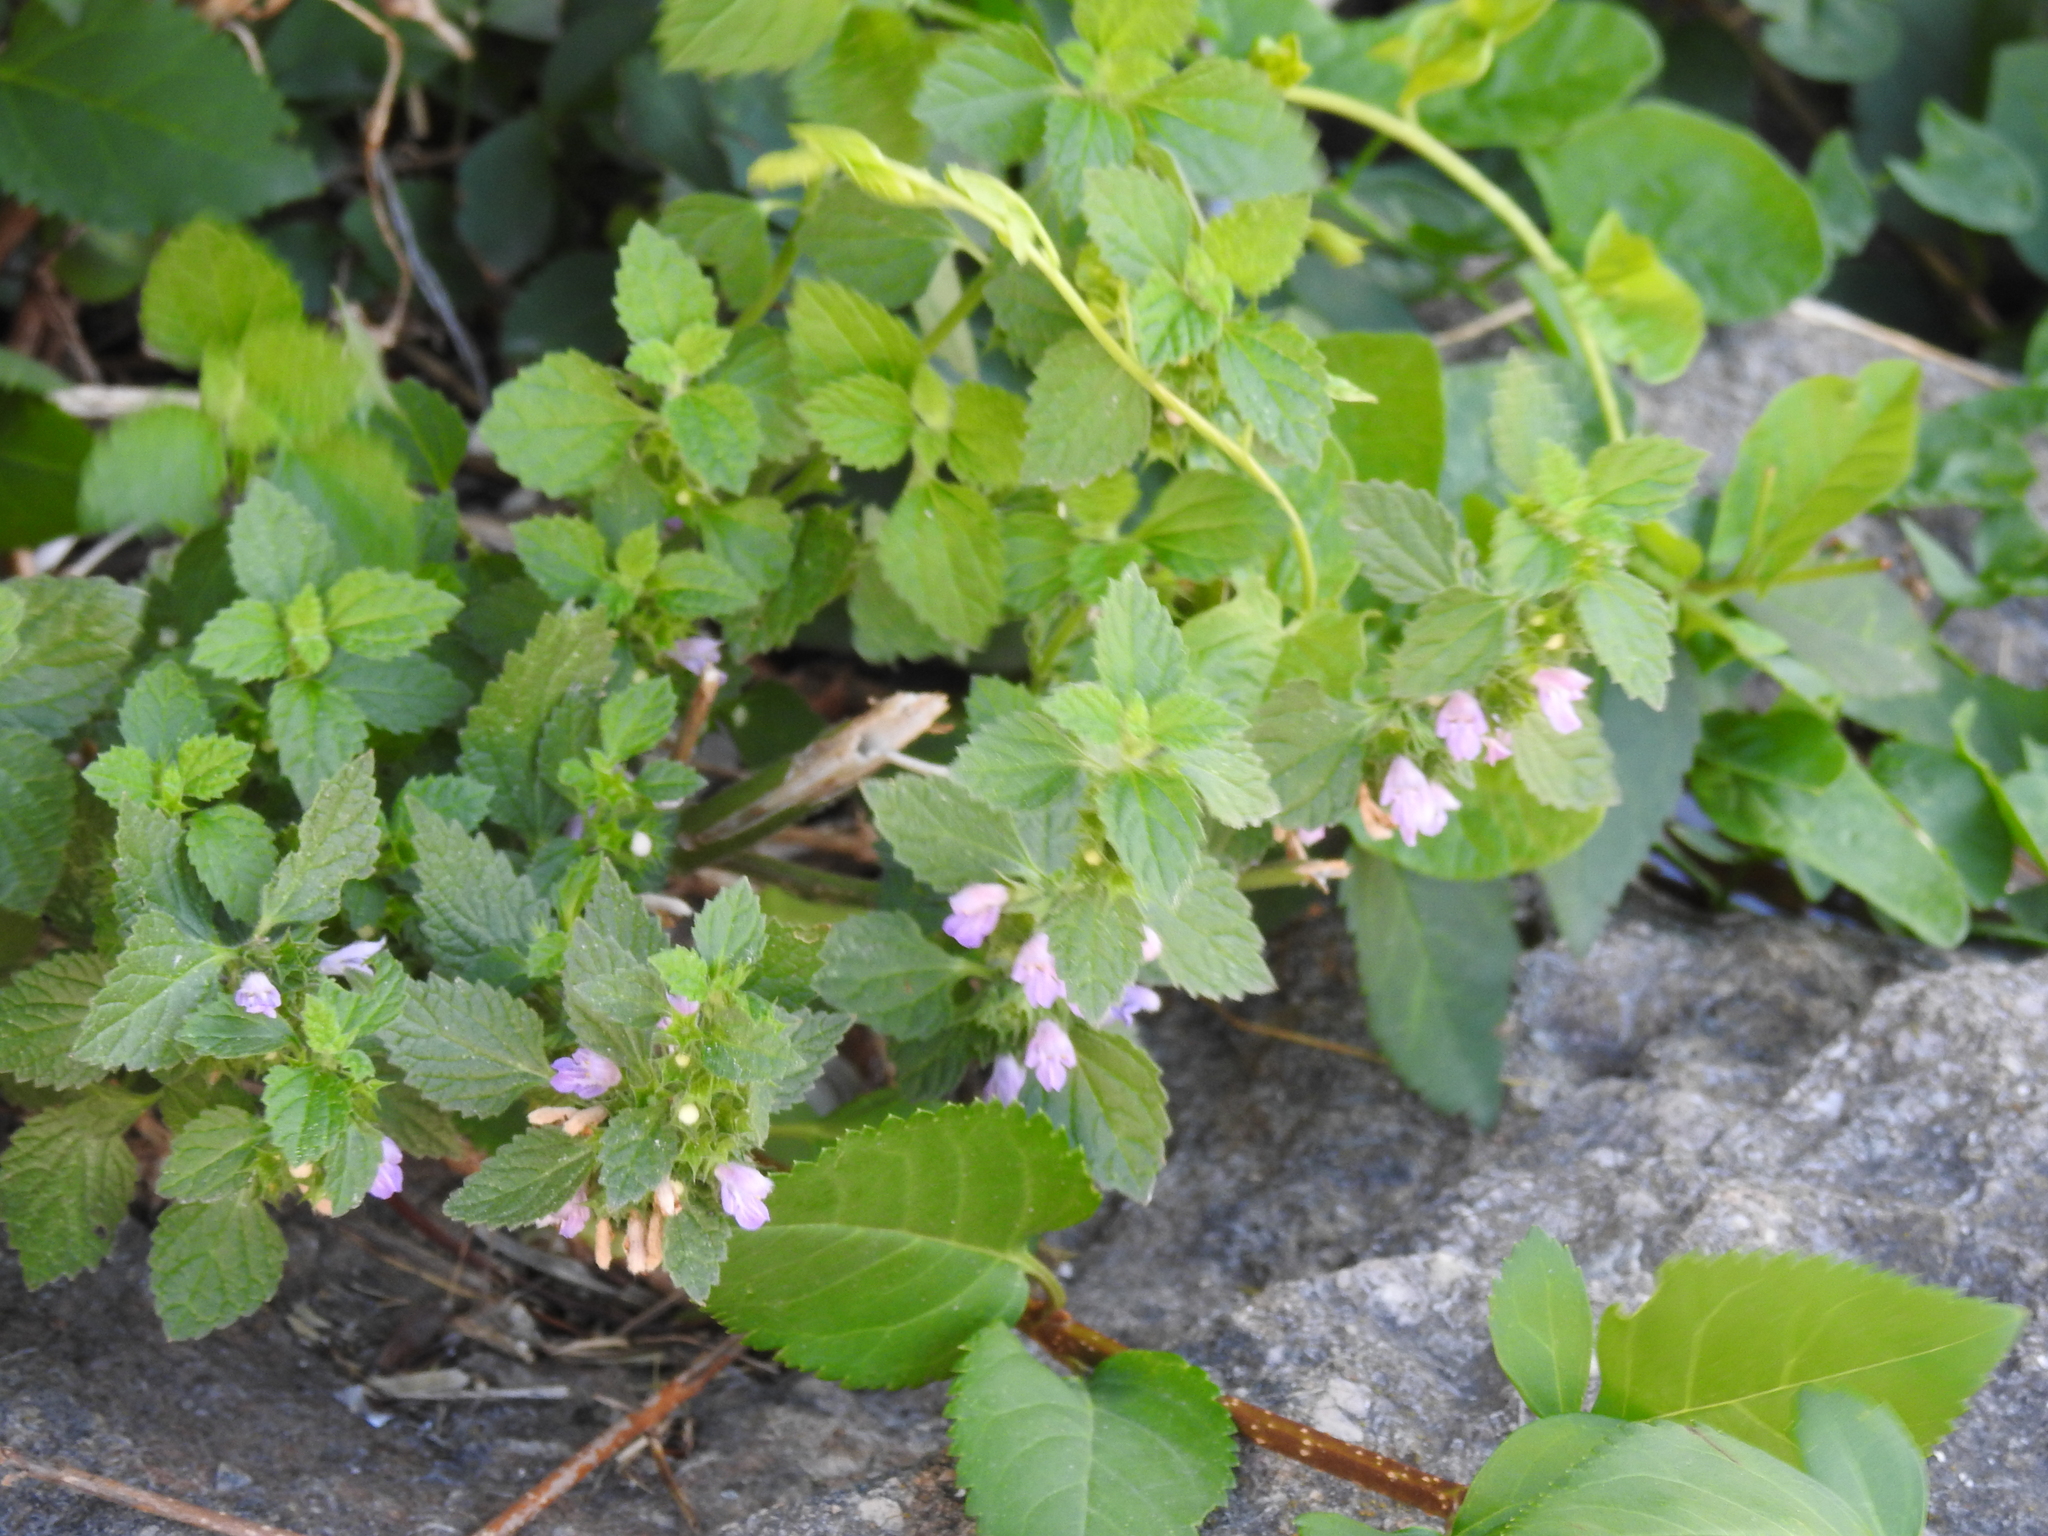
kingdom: Plantae
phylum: Tracheophyta
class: Magnoliopsida
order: Lamiales
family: Lamiaceae
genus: Ballota
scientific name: Ballota nigra
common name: Black horehound
